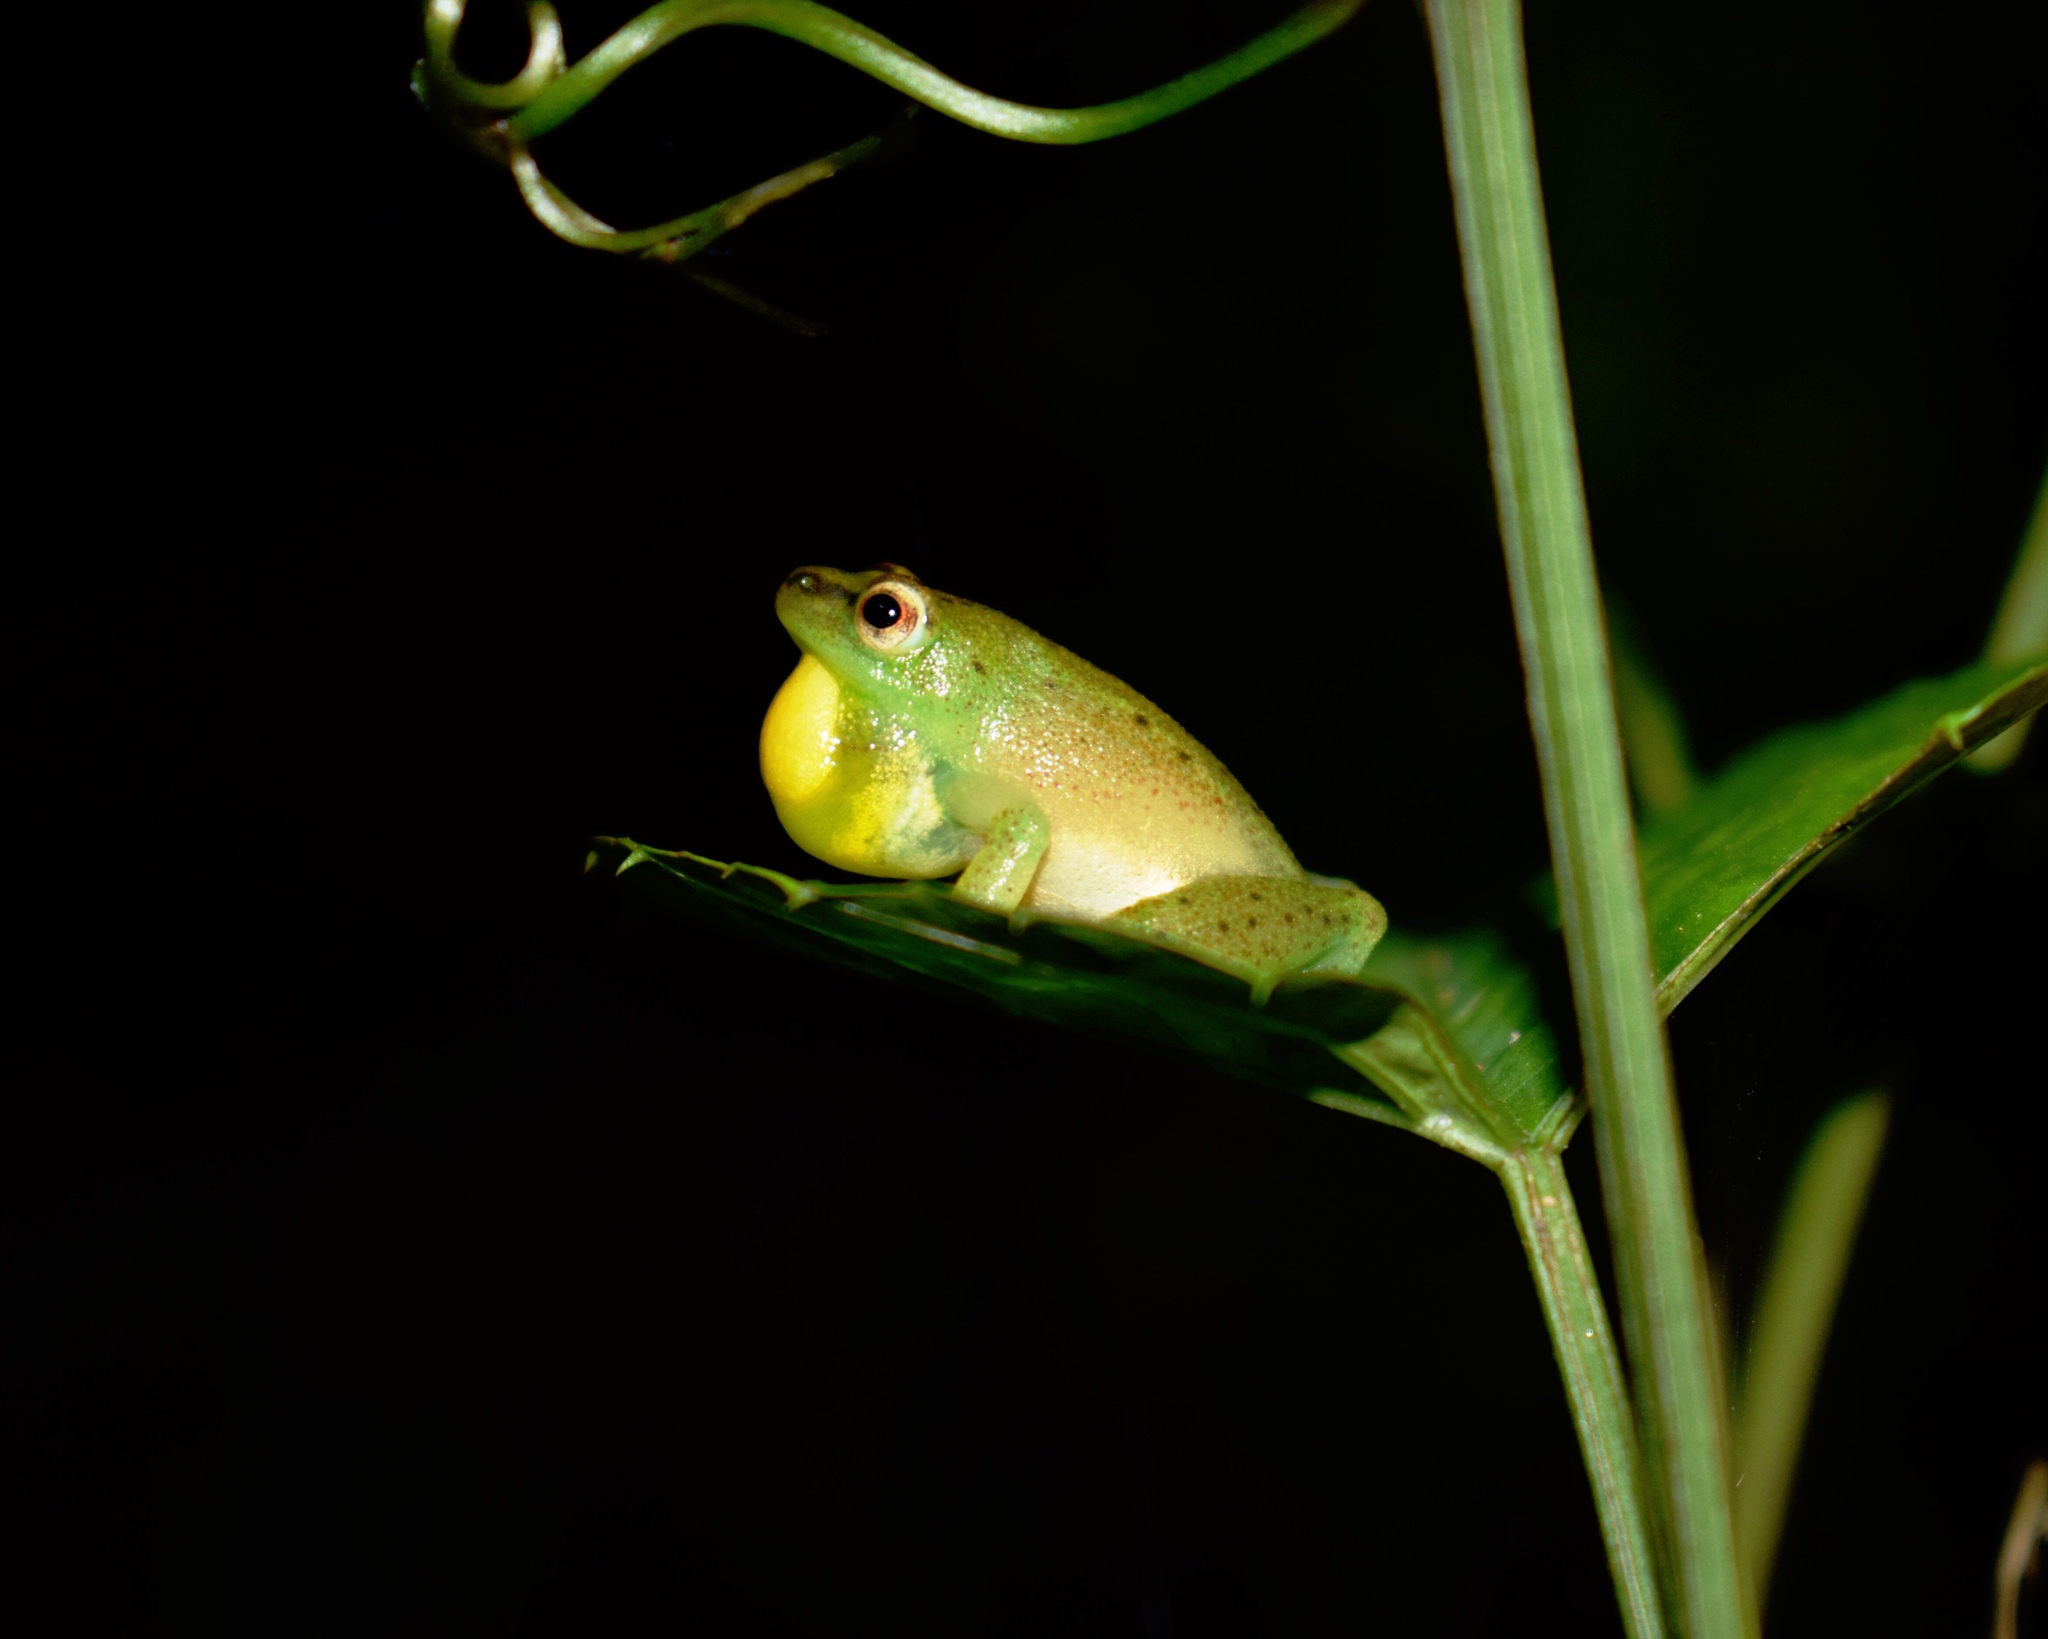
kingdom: Animalia
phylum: Chordata
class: Amphibia
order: Anura
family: Hyperoliidae
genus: Hyperolius
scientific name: Hyperolius pusillus
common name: Water lily reed frog
